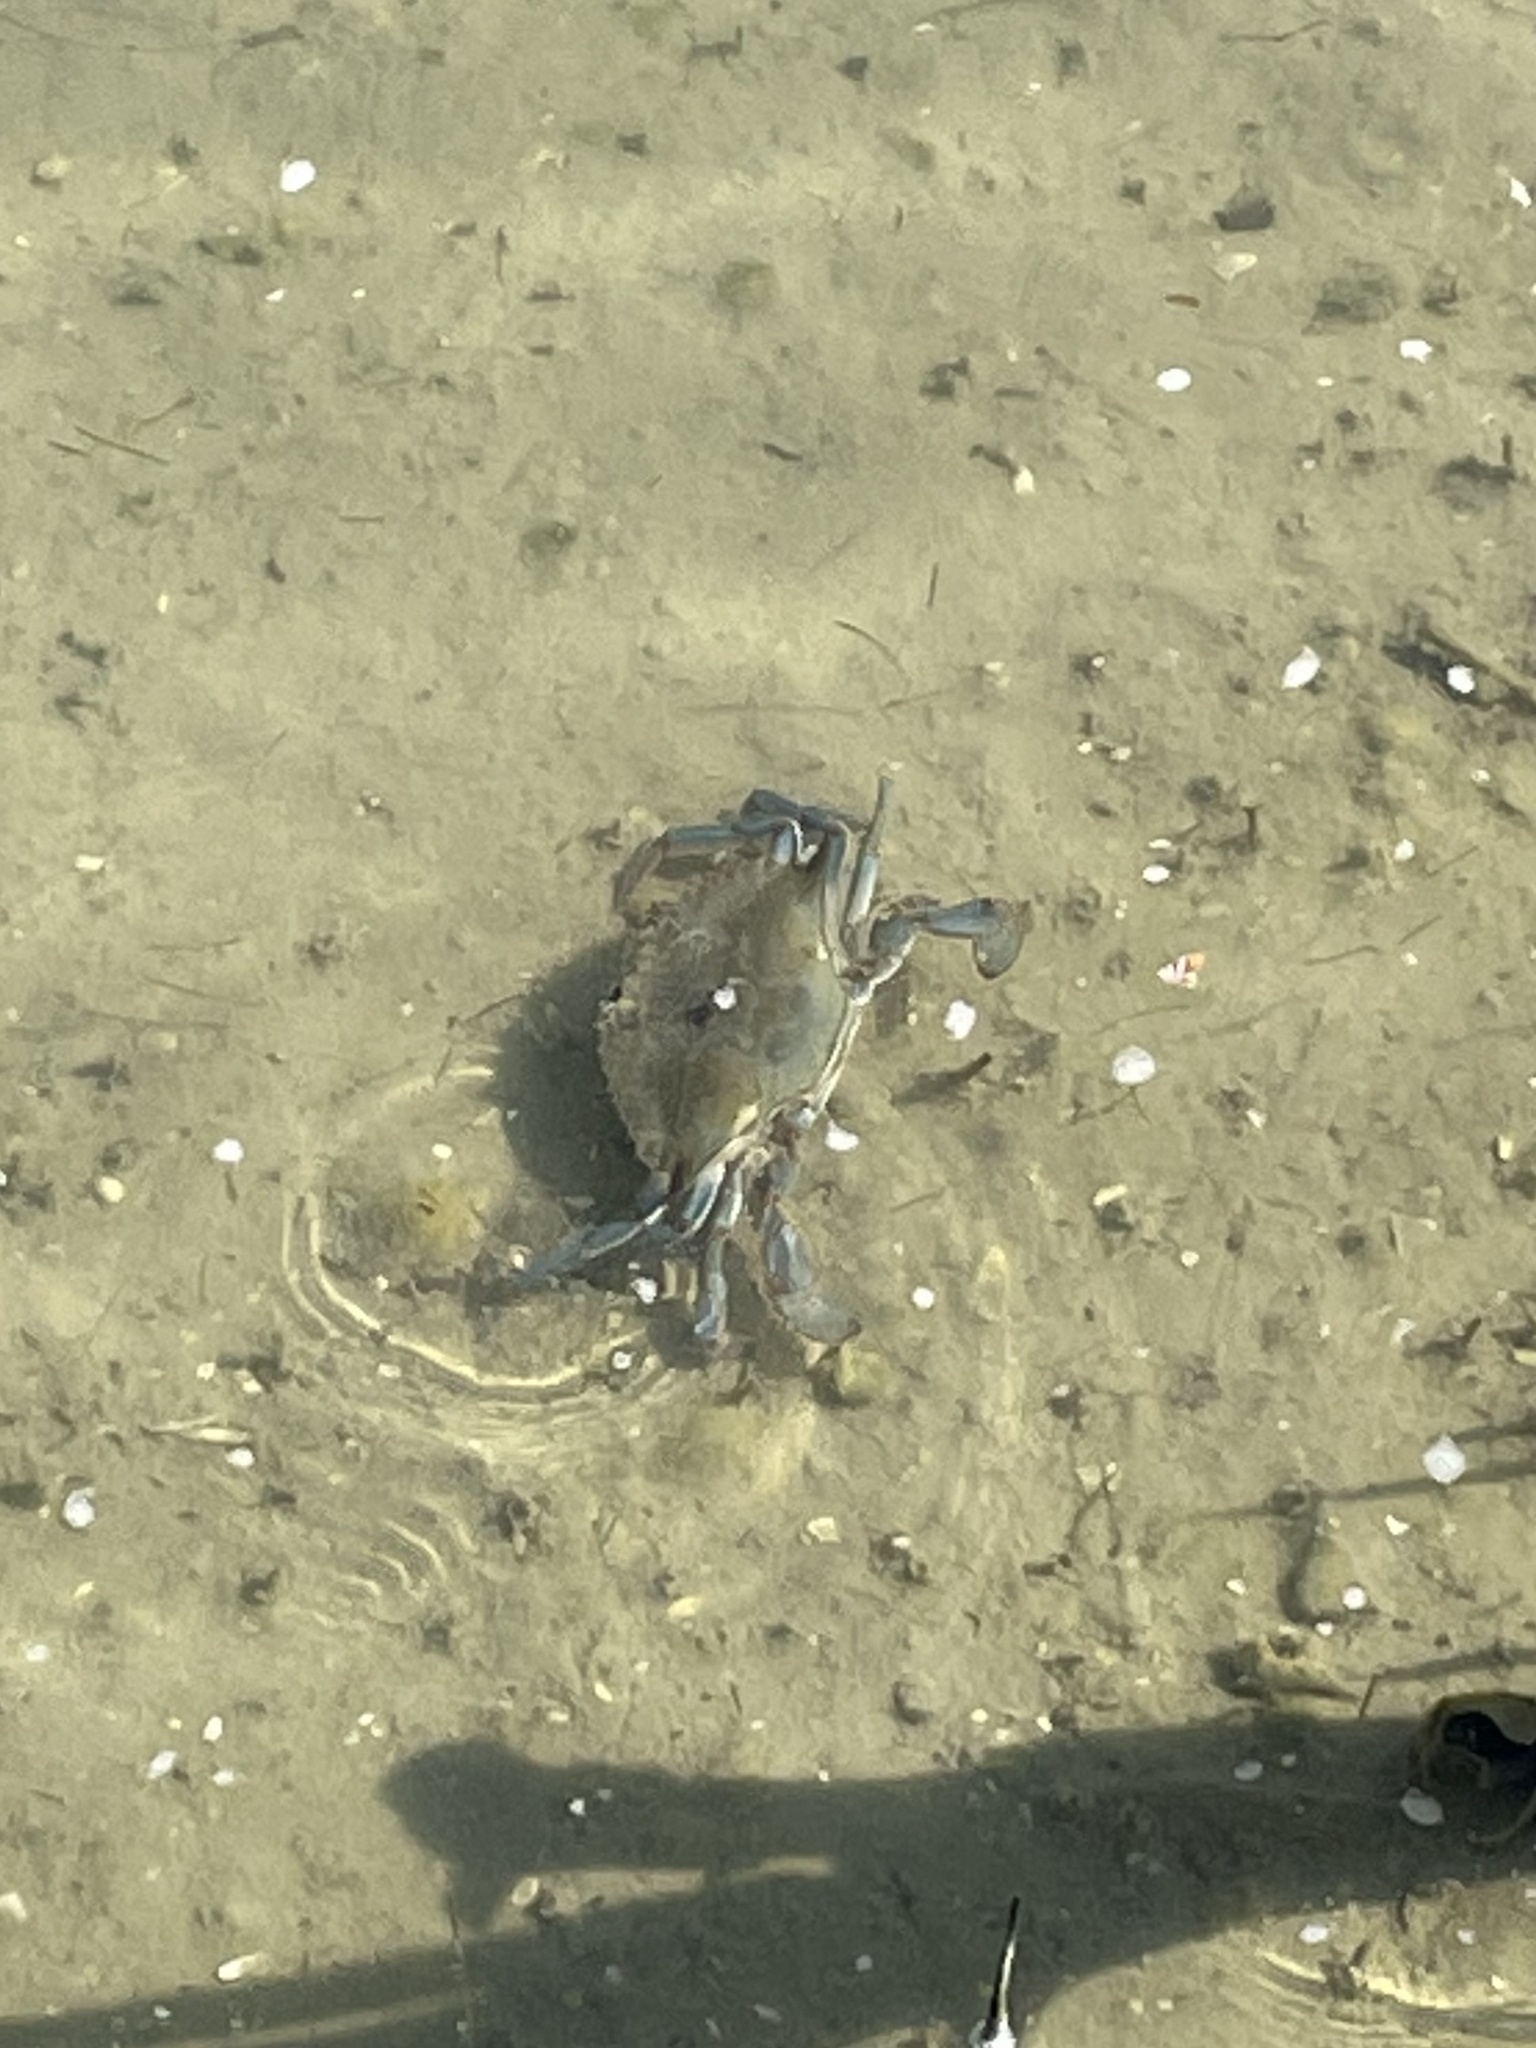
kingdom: Animalia
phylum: Arthropoda
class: Malacostraca
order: Decapoda
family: Portunidae
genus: Callinectes
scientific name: Callinectes sapidus
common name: Blue crab
